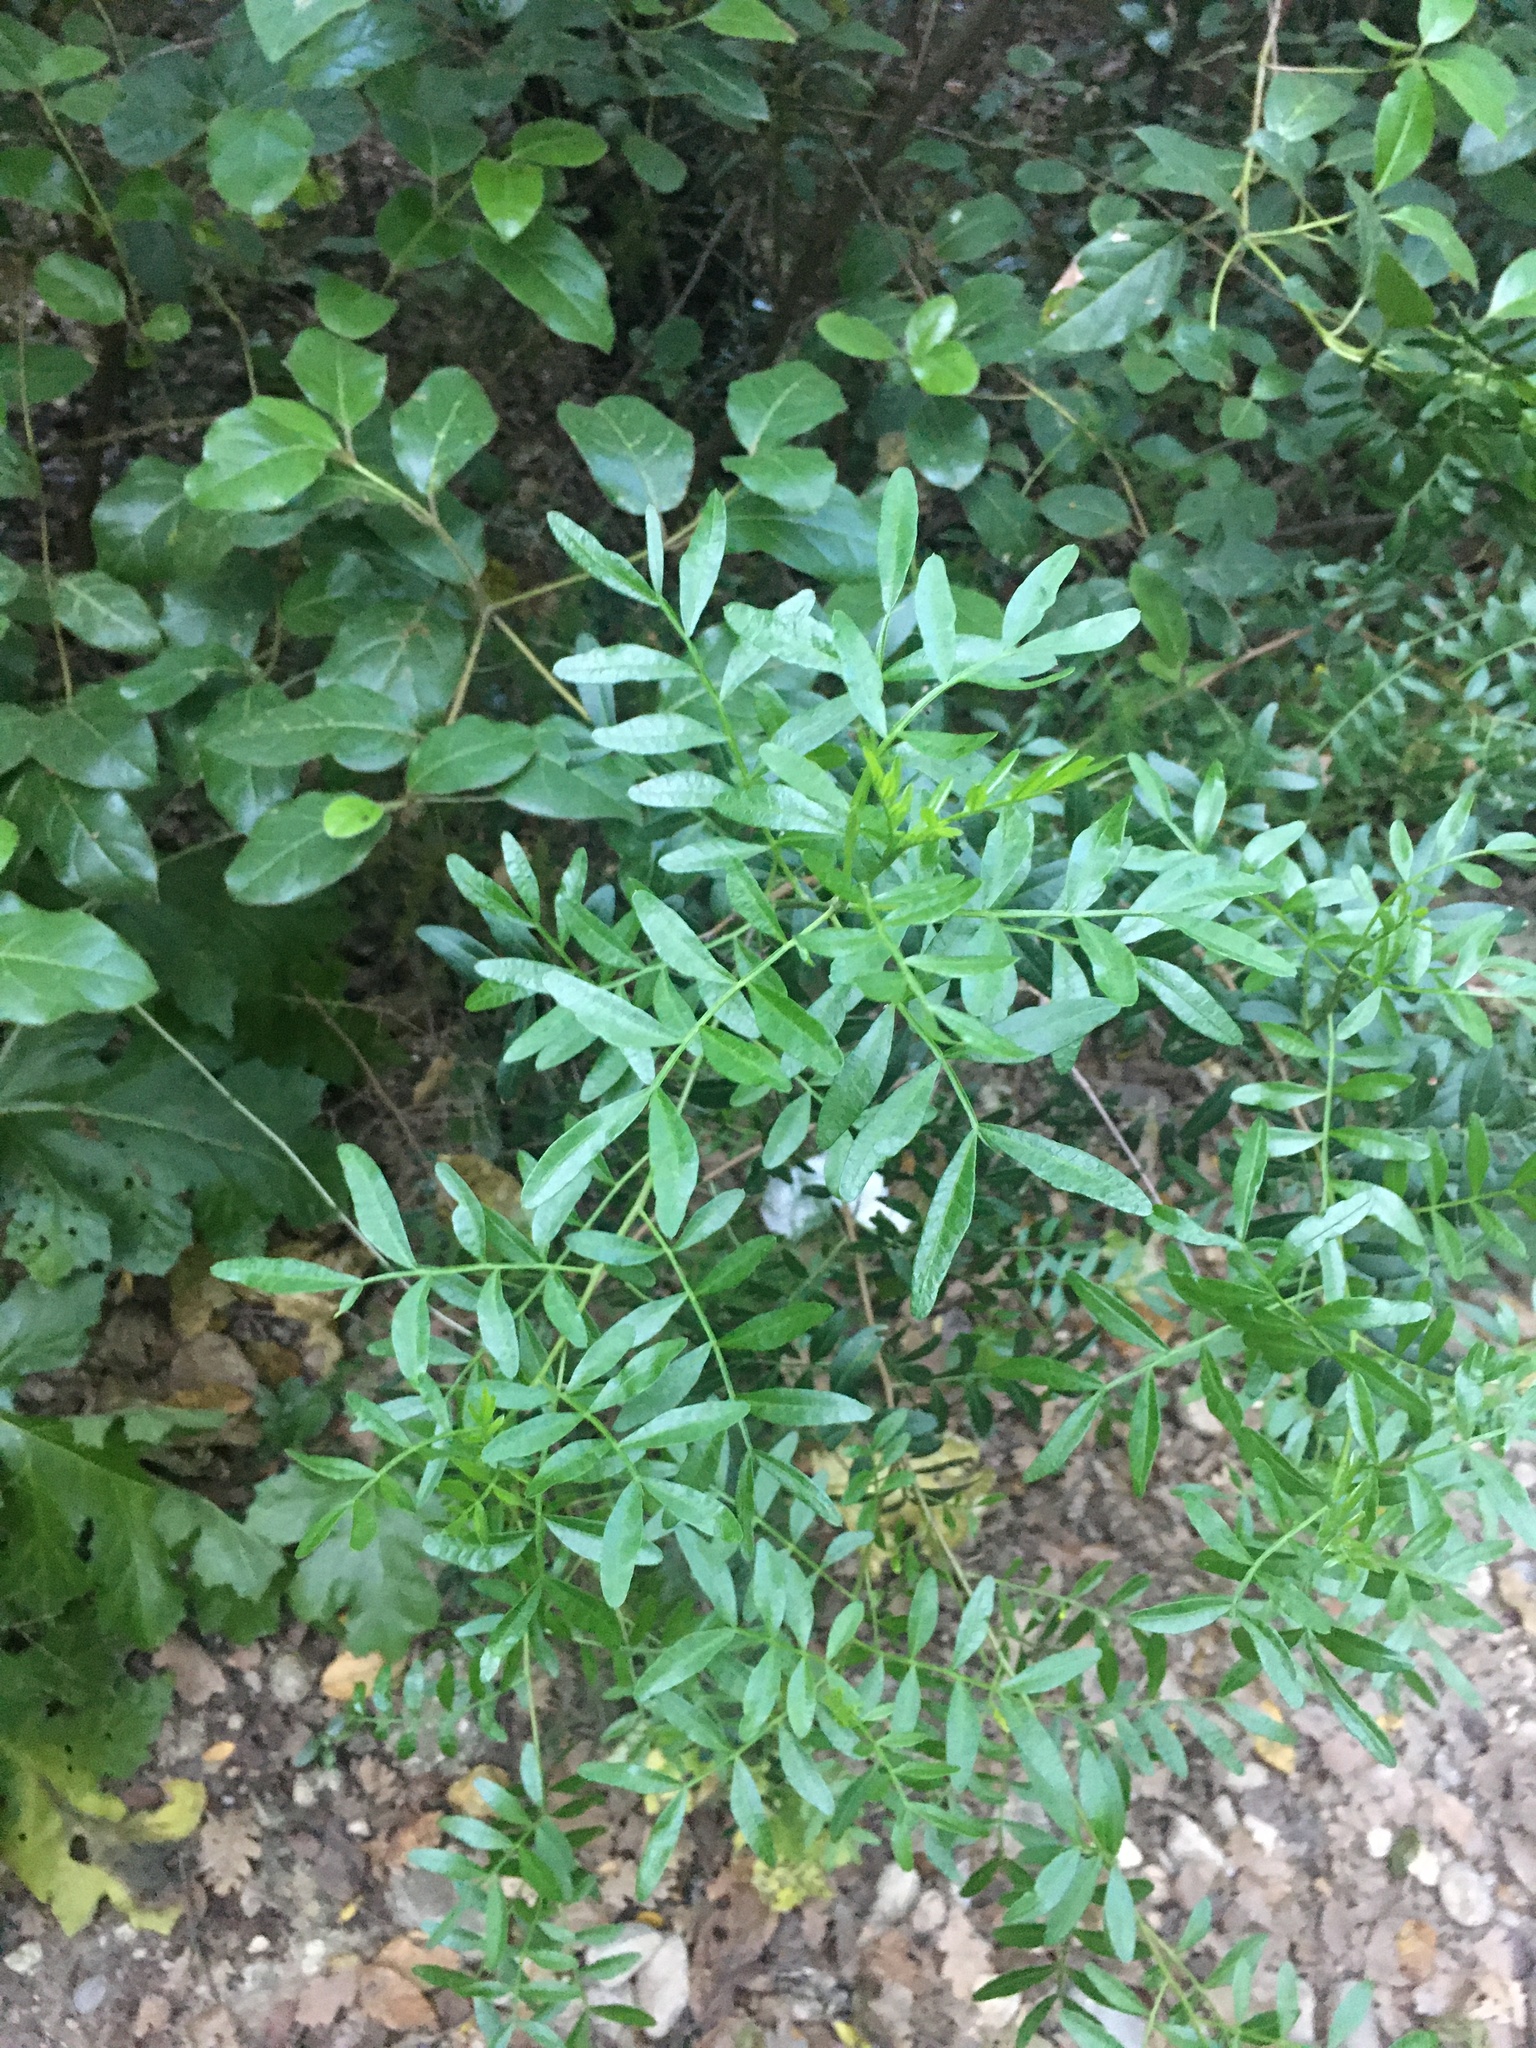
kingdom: Plantae
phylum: Tracheophyta
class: Magnoliopsida
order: Sapindales
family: Anacardiaceae
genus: Pistacia
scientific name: Pistacia lentiscus
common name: Lentisk
